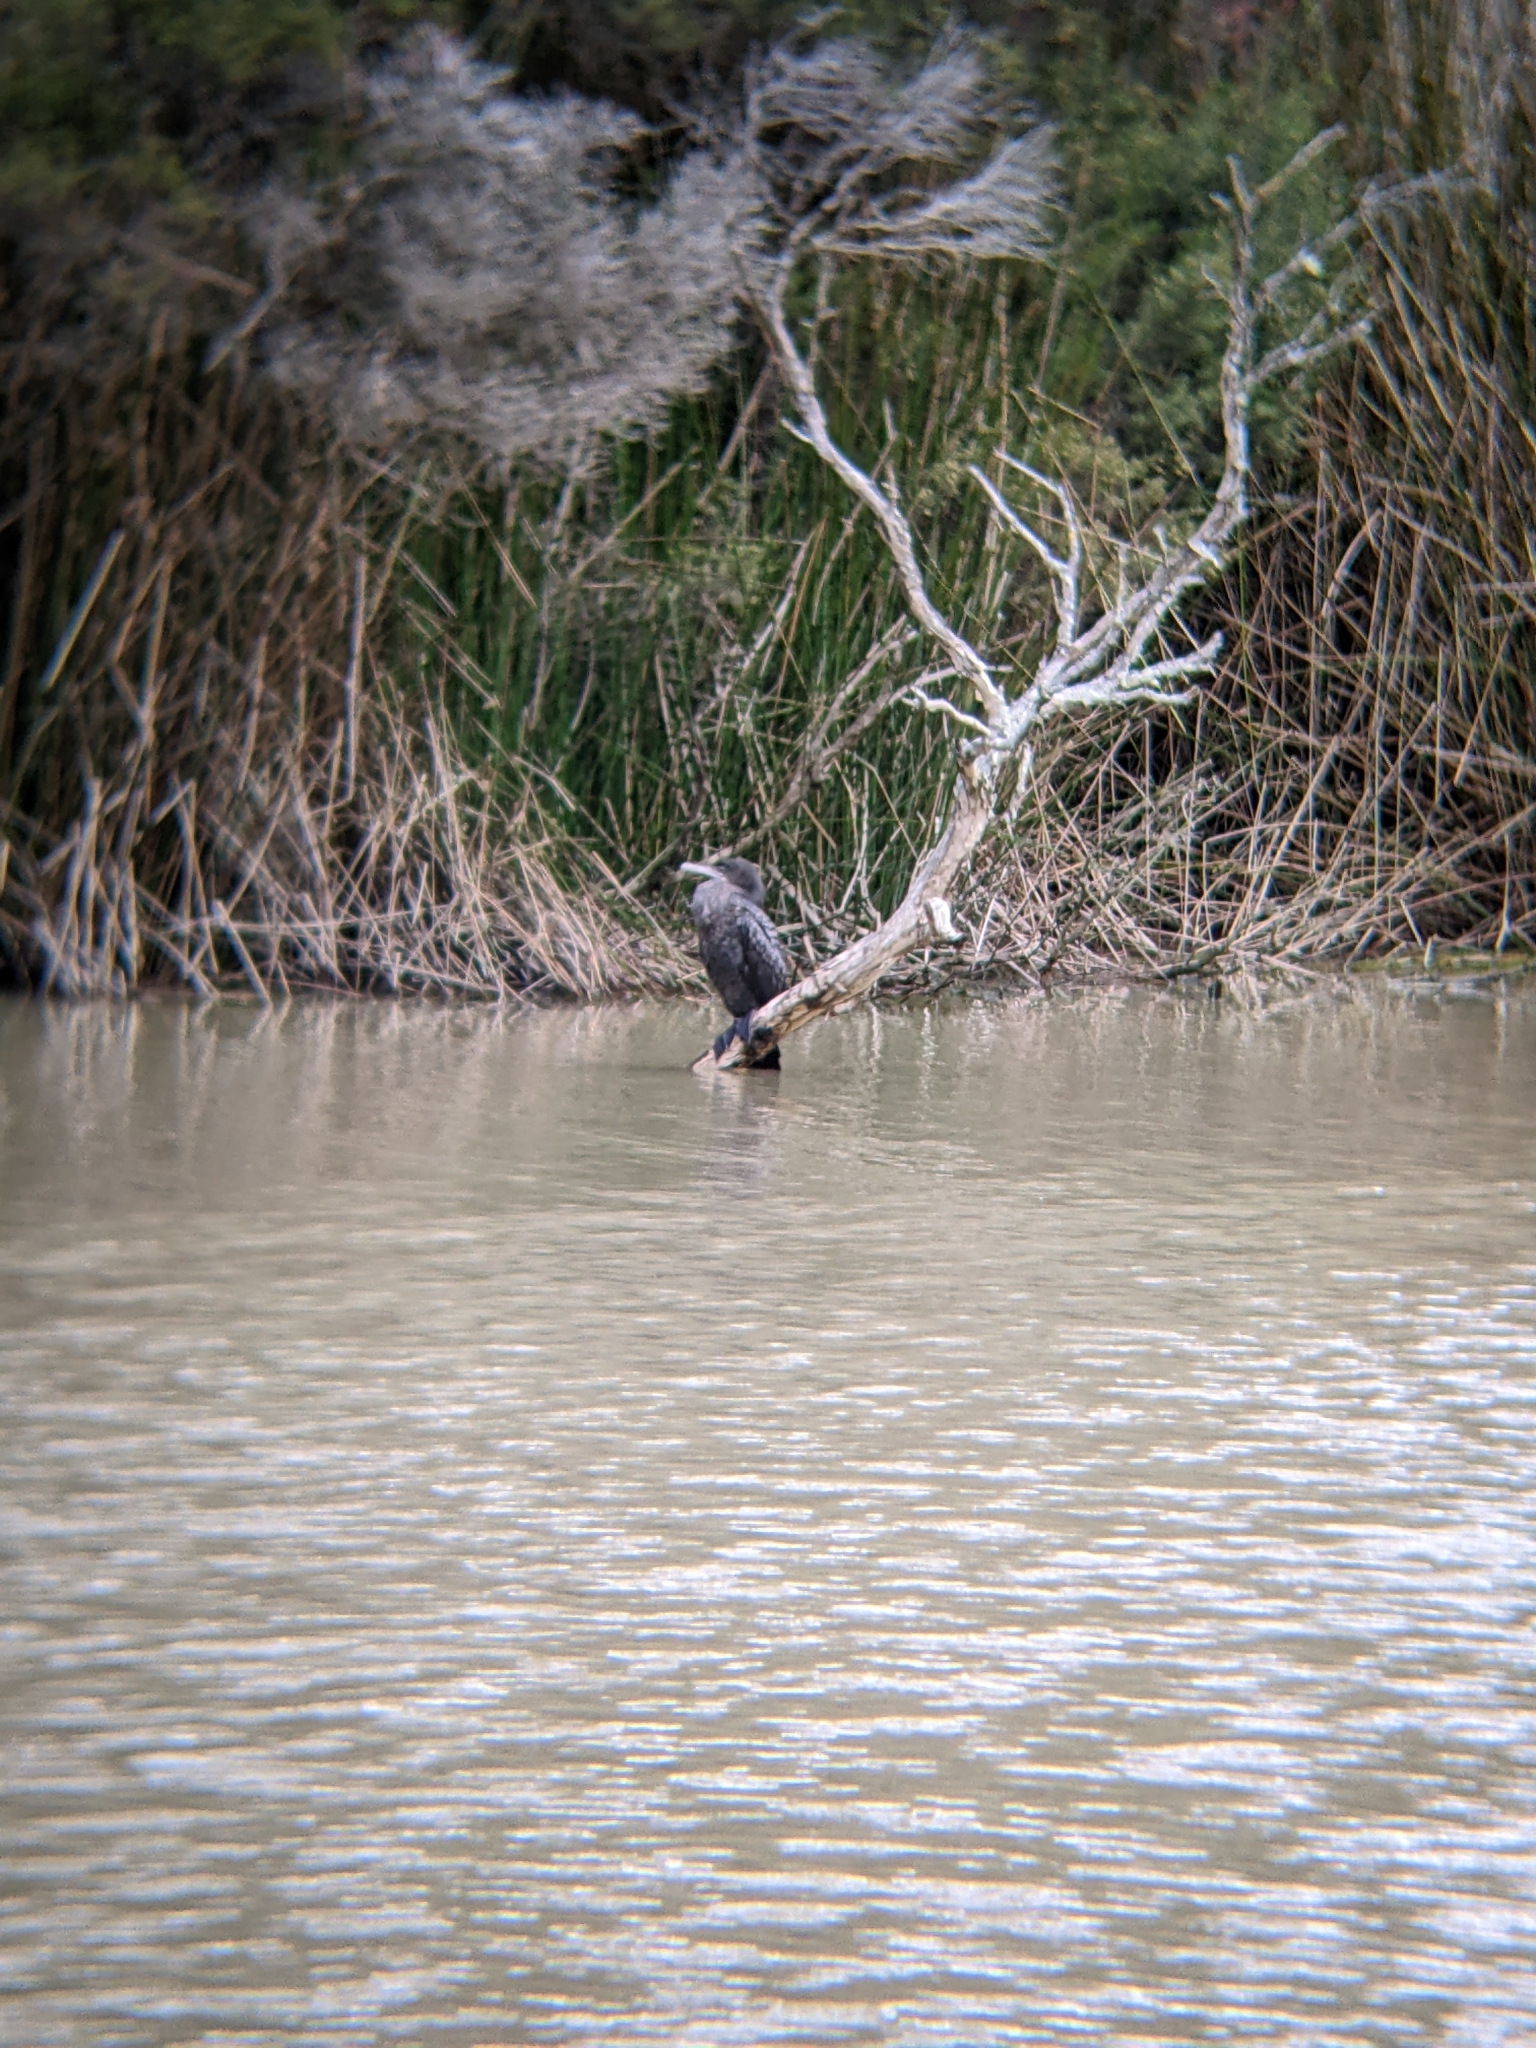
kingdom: Animalia
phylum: Chordata
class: Aves
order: Suliformes
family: Phalacrocoracidae
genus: Phalacrocorax
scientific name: Phalacrocorax sulcirostris
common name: Little black cormorant
